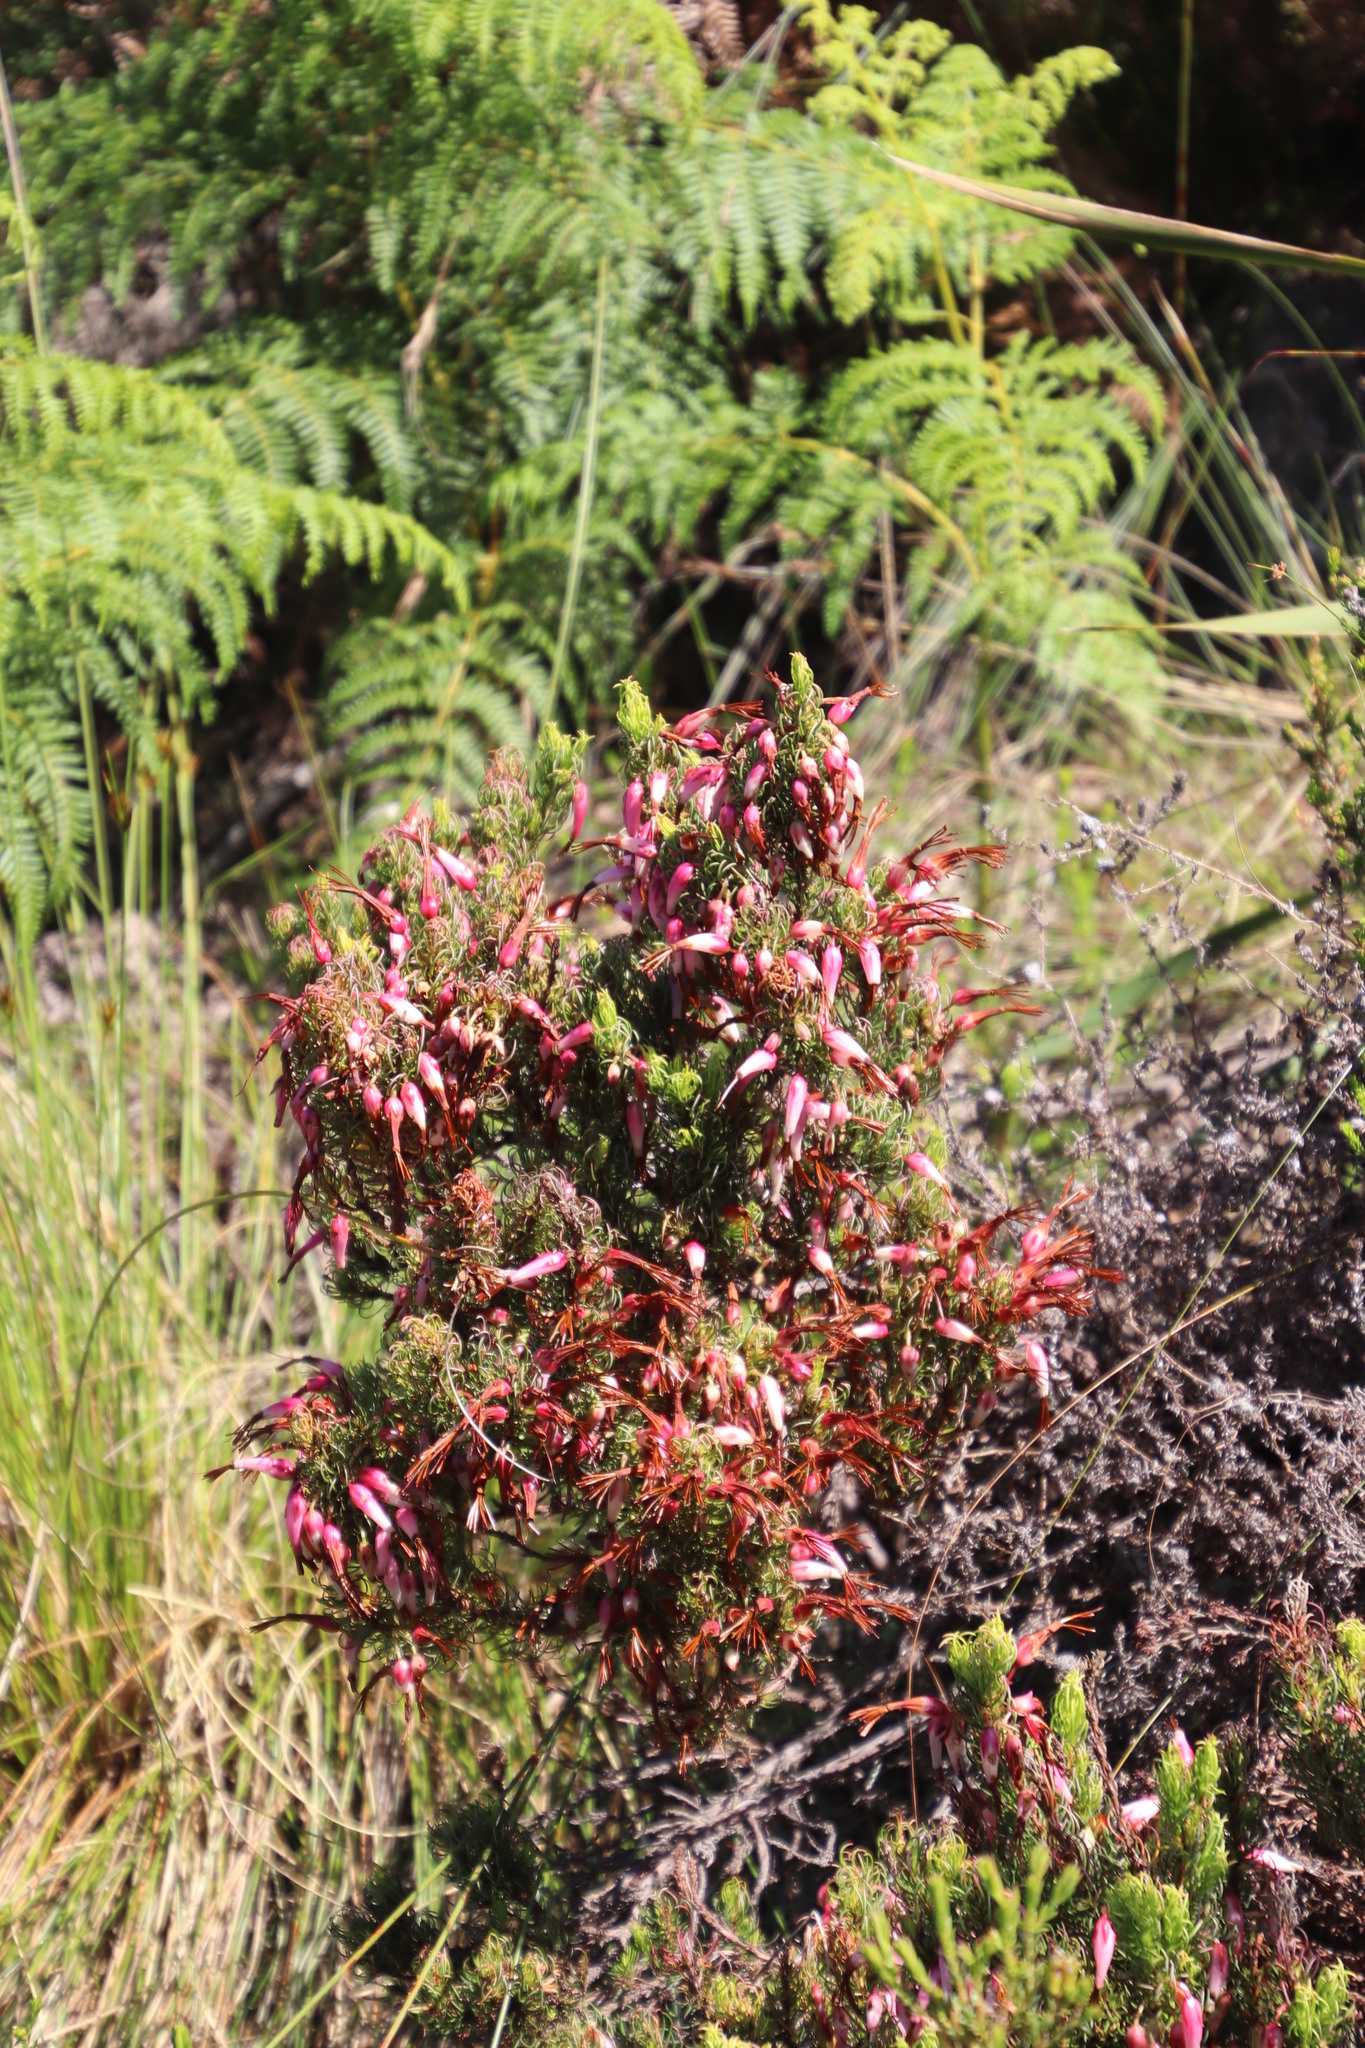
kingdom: Plantae
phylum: Tracheophyta
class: Magnoliopsida
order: Ericales
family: Ericaceae
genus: Erica
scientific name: Erica plukenetii
